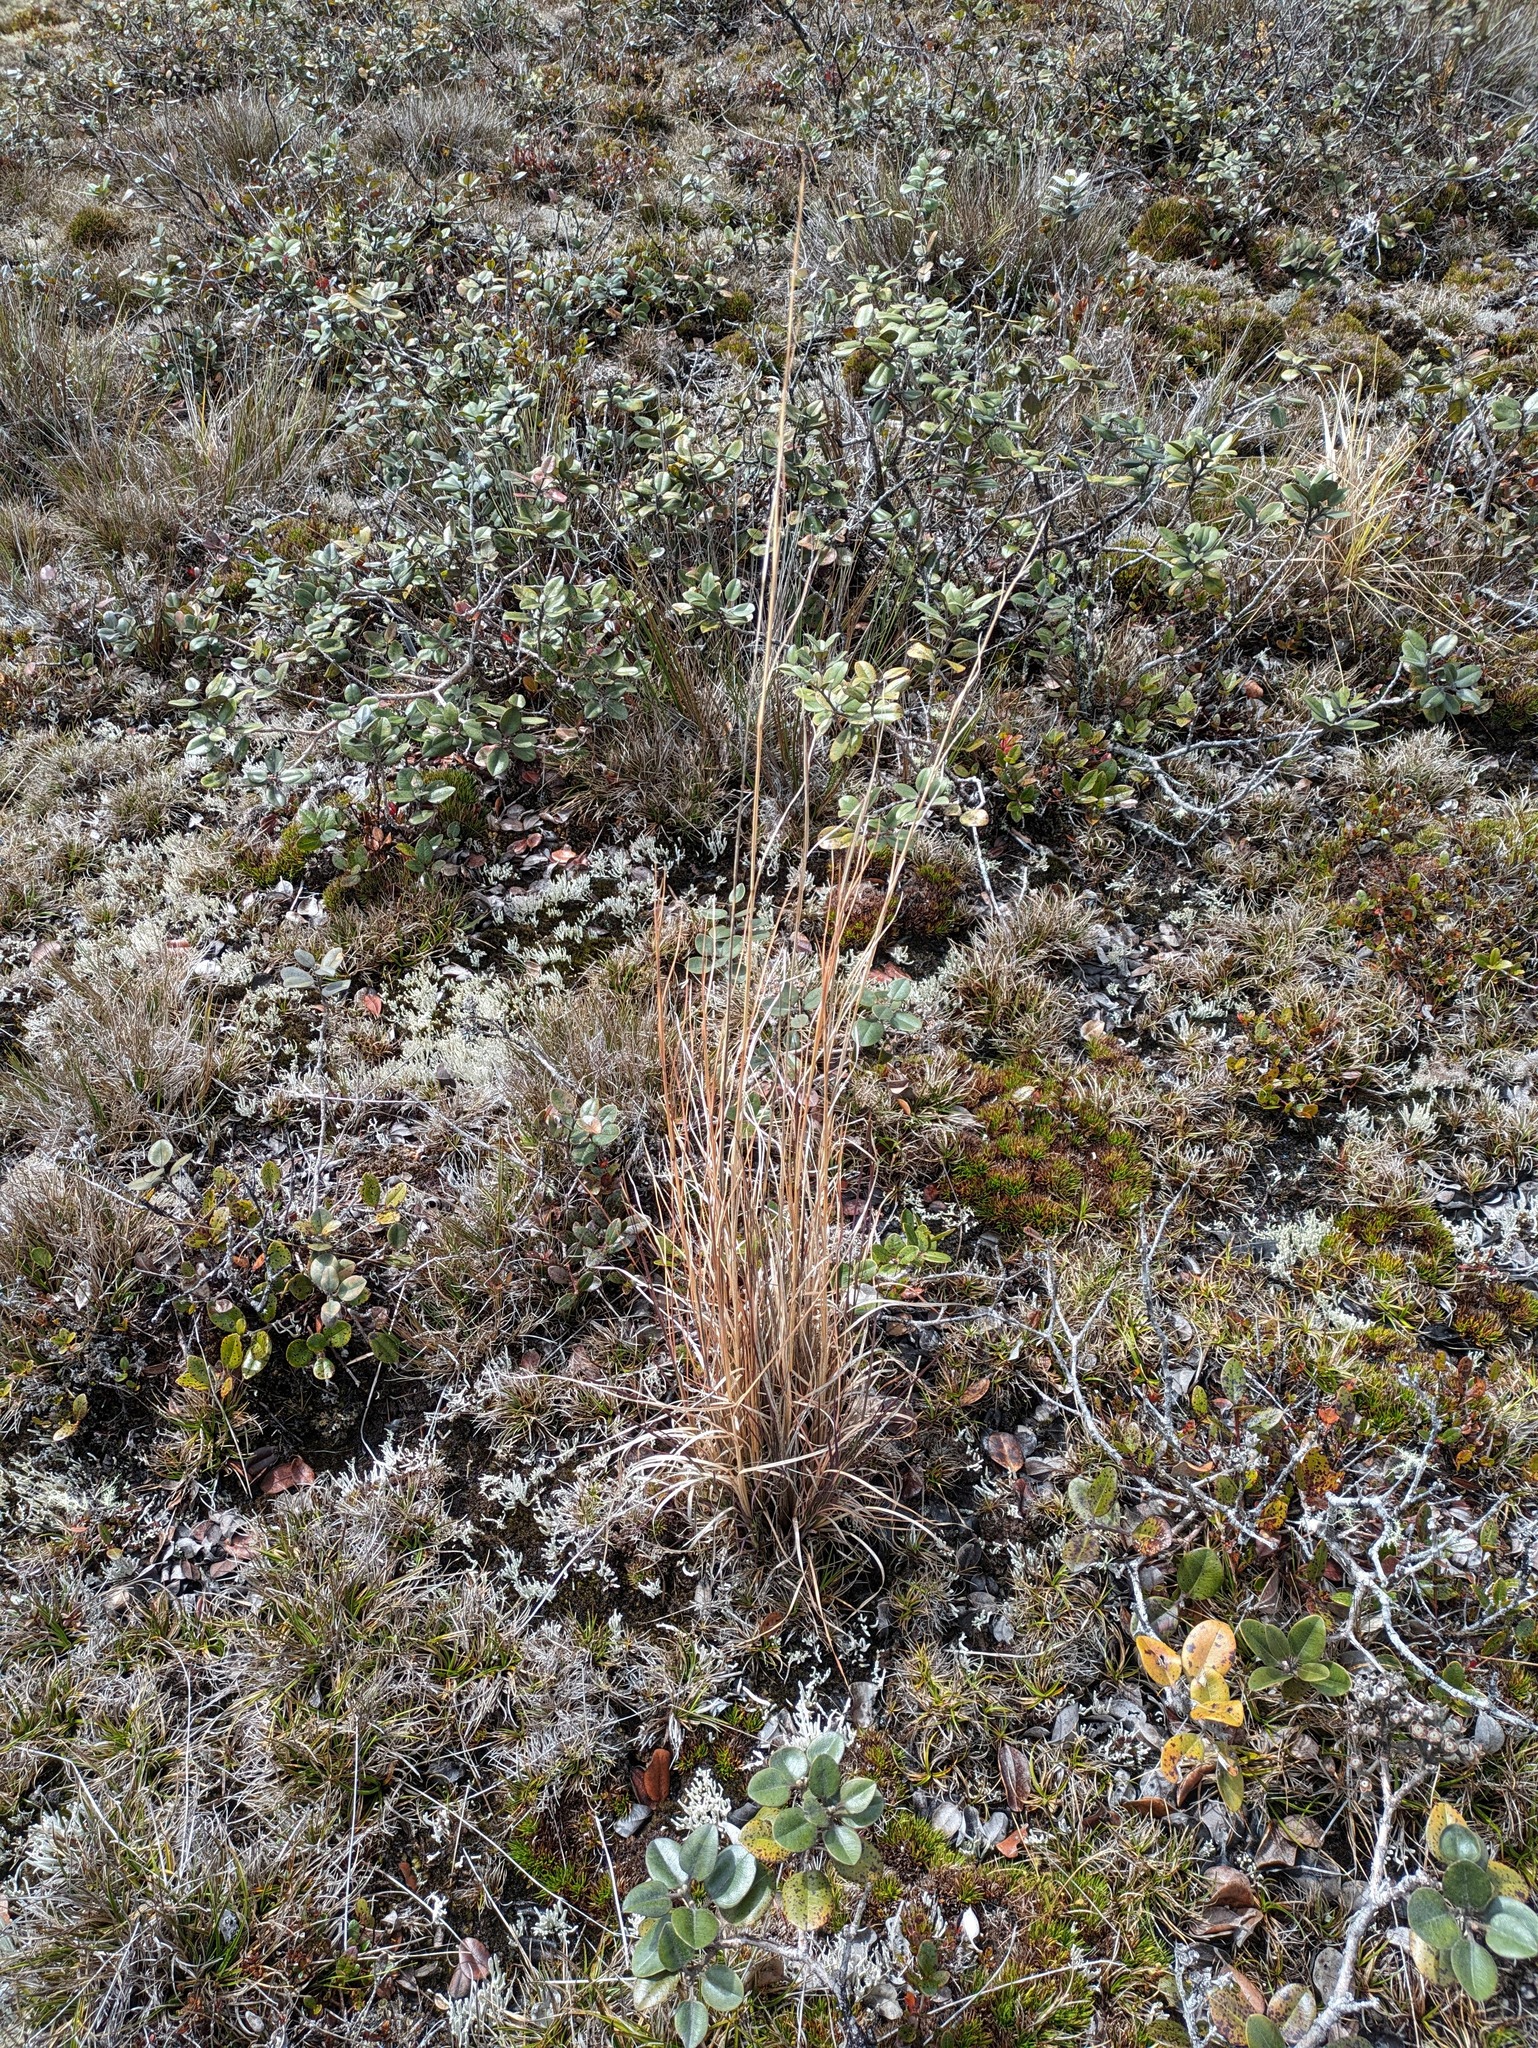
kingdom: Plantae
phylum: Tracheophyta
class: Liliopsida
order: Poales
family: Poaceae
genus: Andropogon
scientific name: Andropogon virginicus
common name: Broomsedge bluestem
